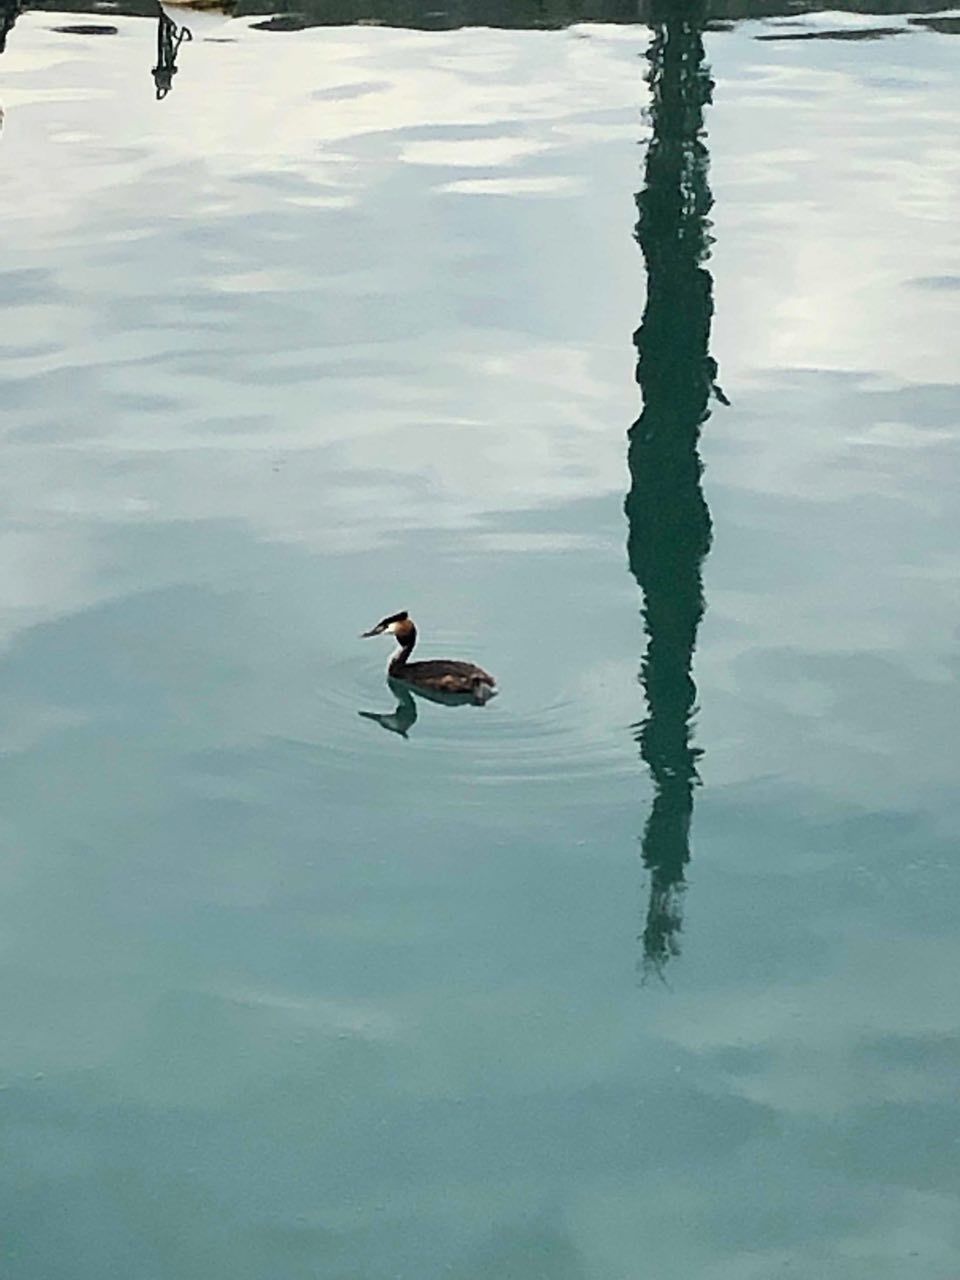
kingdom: Animalia
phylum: Chordata
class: Aves
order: Podicipediformes
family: Podicipedidae
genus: Podiceps
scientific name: Podiceps cristatus
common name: Great crested grebe
